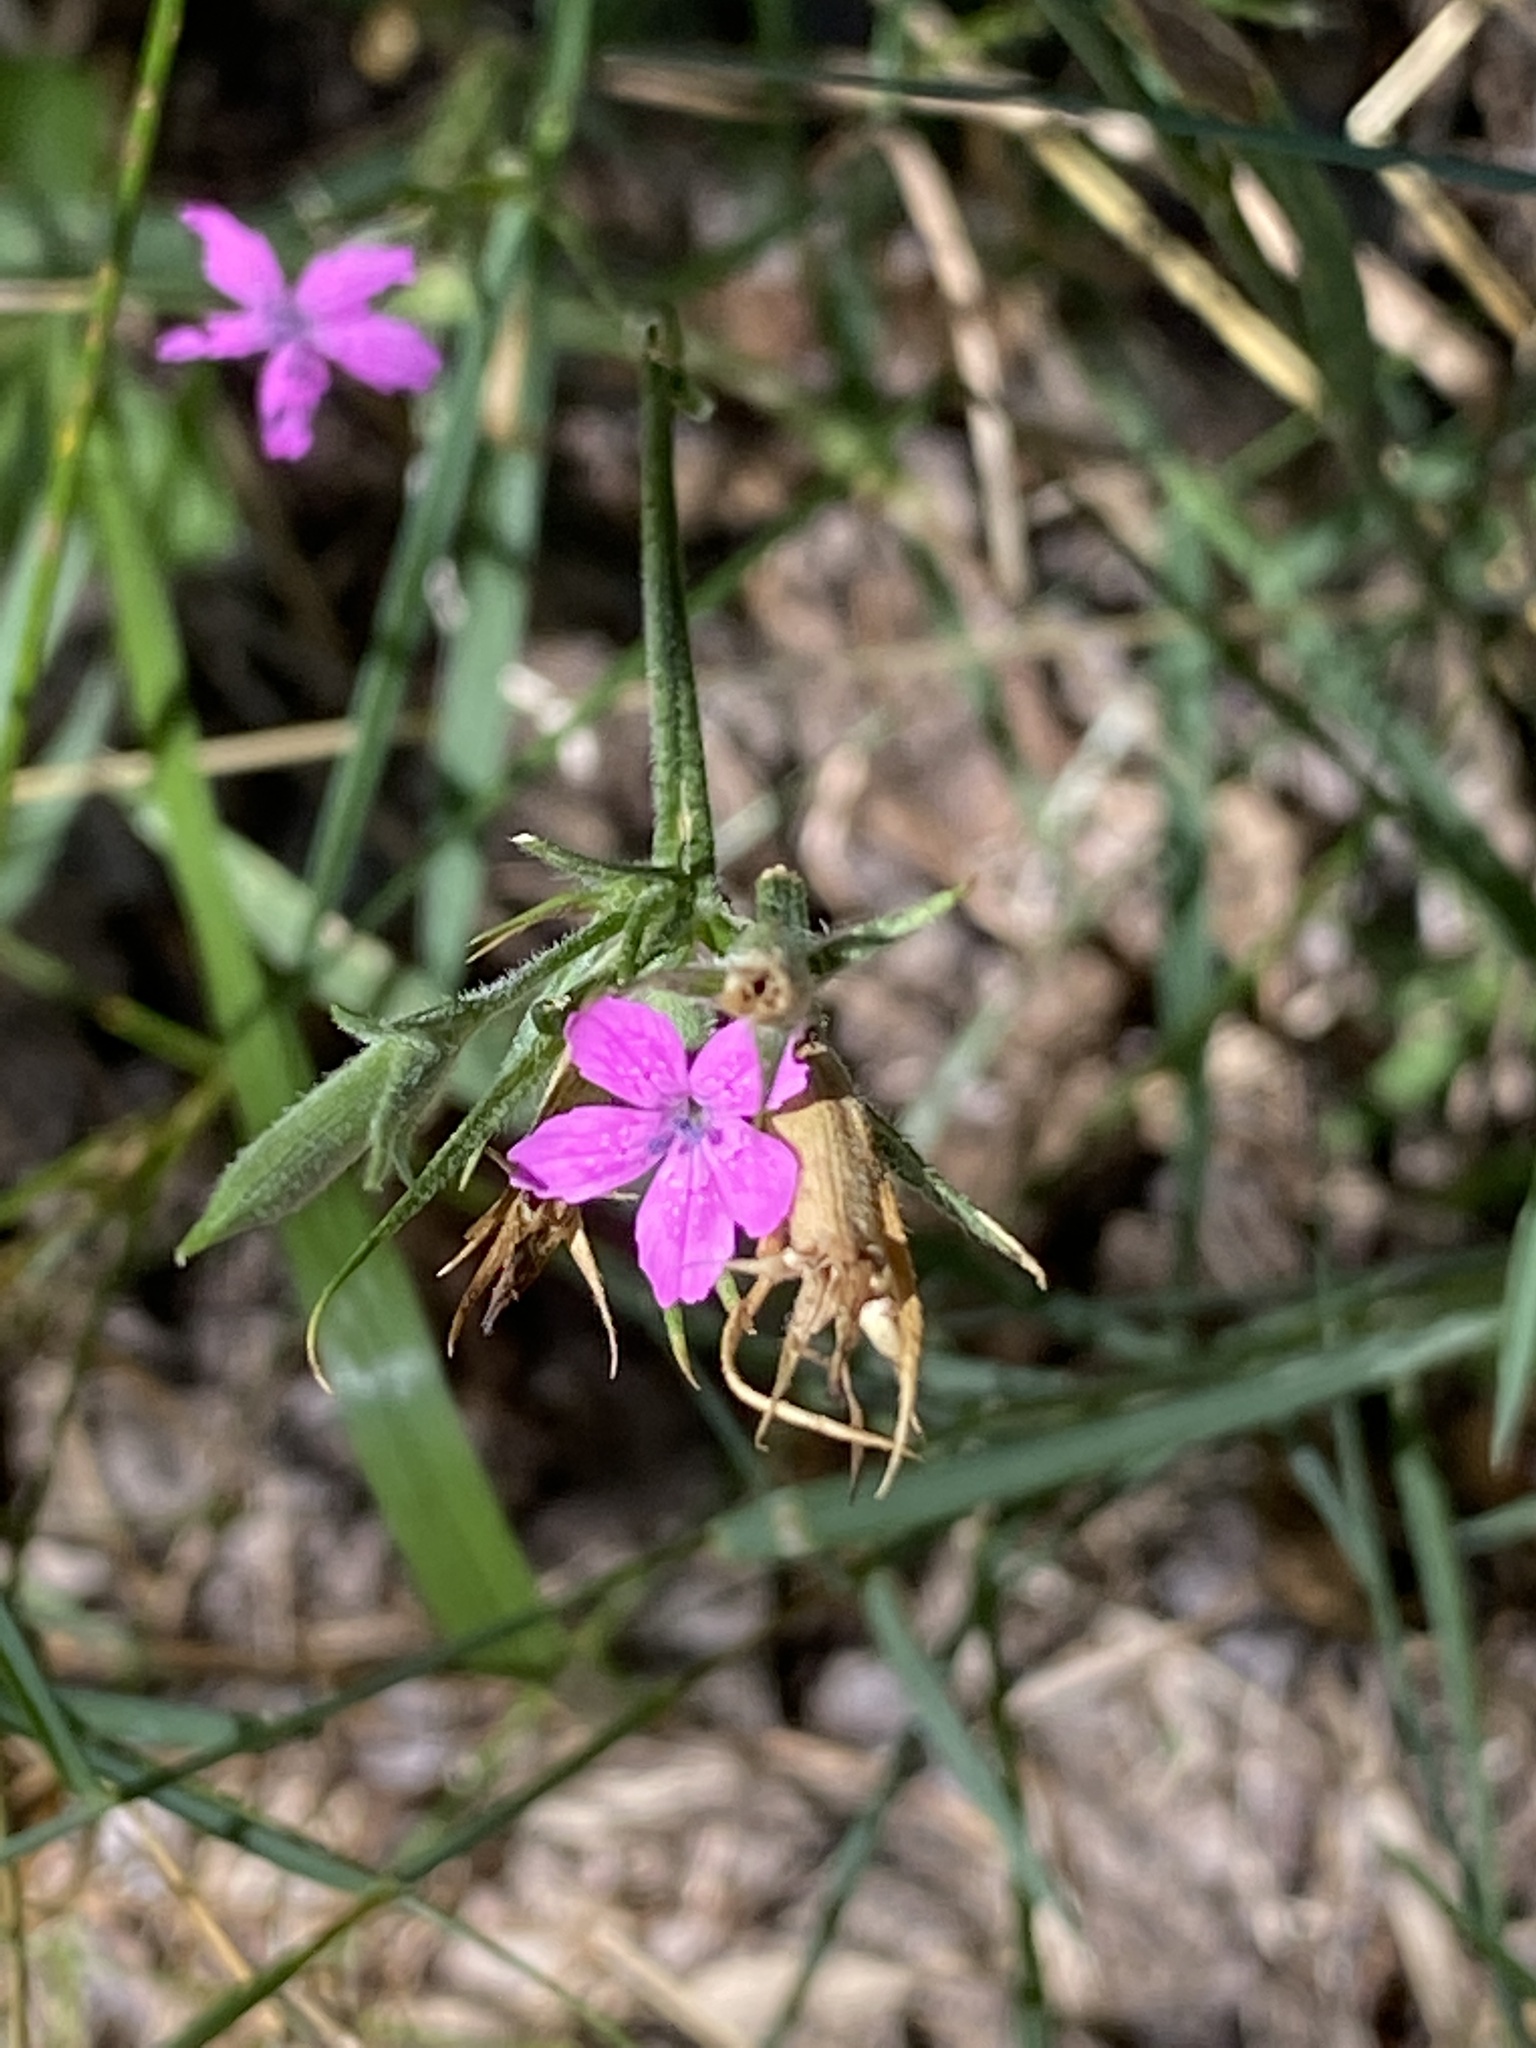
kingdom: Plantae
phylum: Tracheophyta
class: Magnoliopsida
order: Caryophyllales
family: Caryophyllaceae
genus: Dianthus
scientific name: Dianthus armeria
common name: Deptford pink
